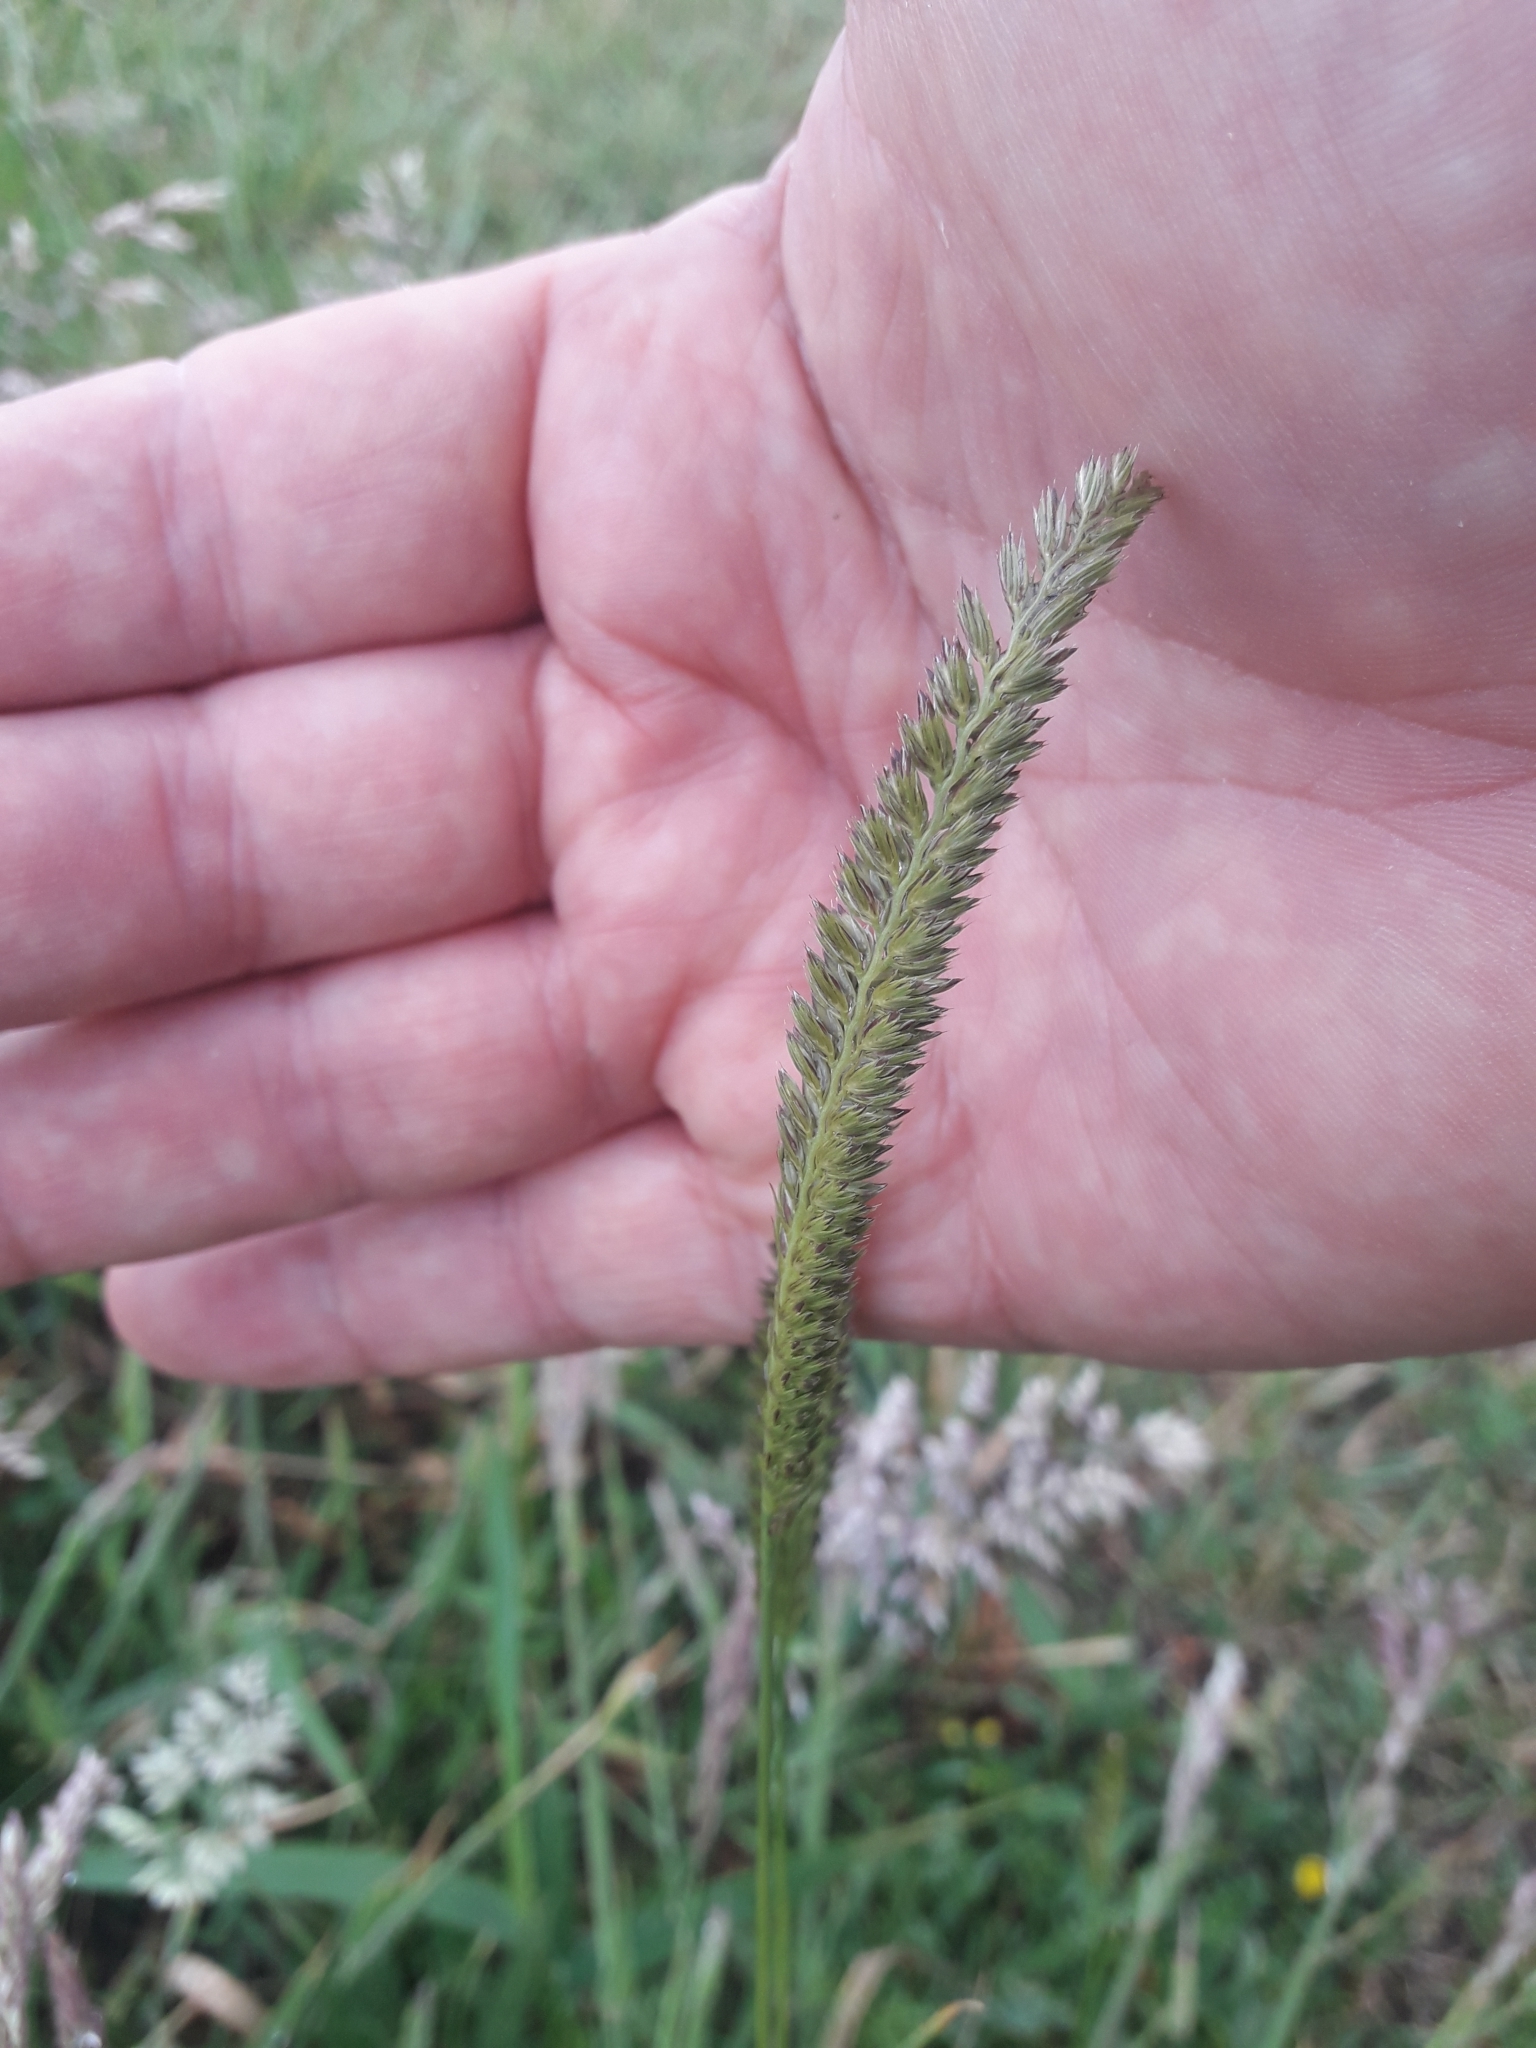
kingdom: Plantae
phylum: Tracheophyta
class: Liliopsida
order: Poales
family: Poaceae
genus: Cynosurus
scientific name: Cynosurus cristatus
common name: Crested dog's-tail
